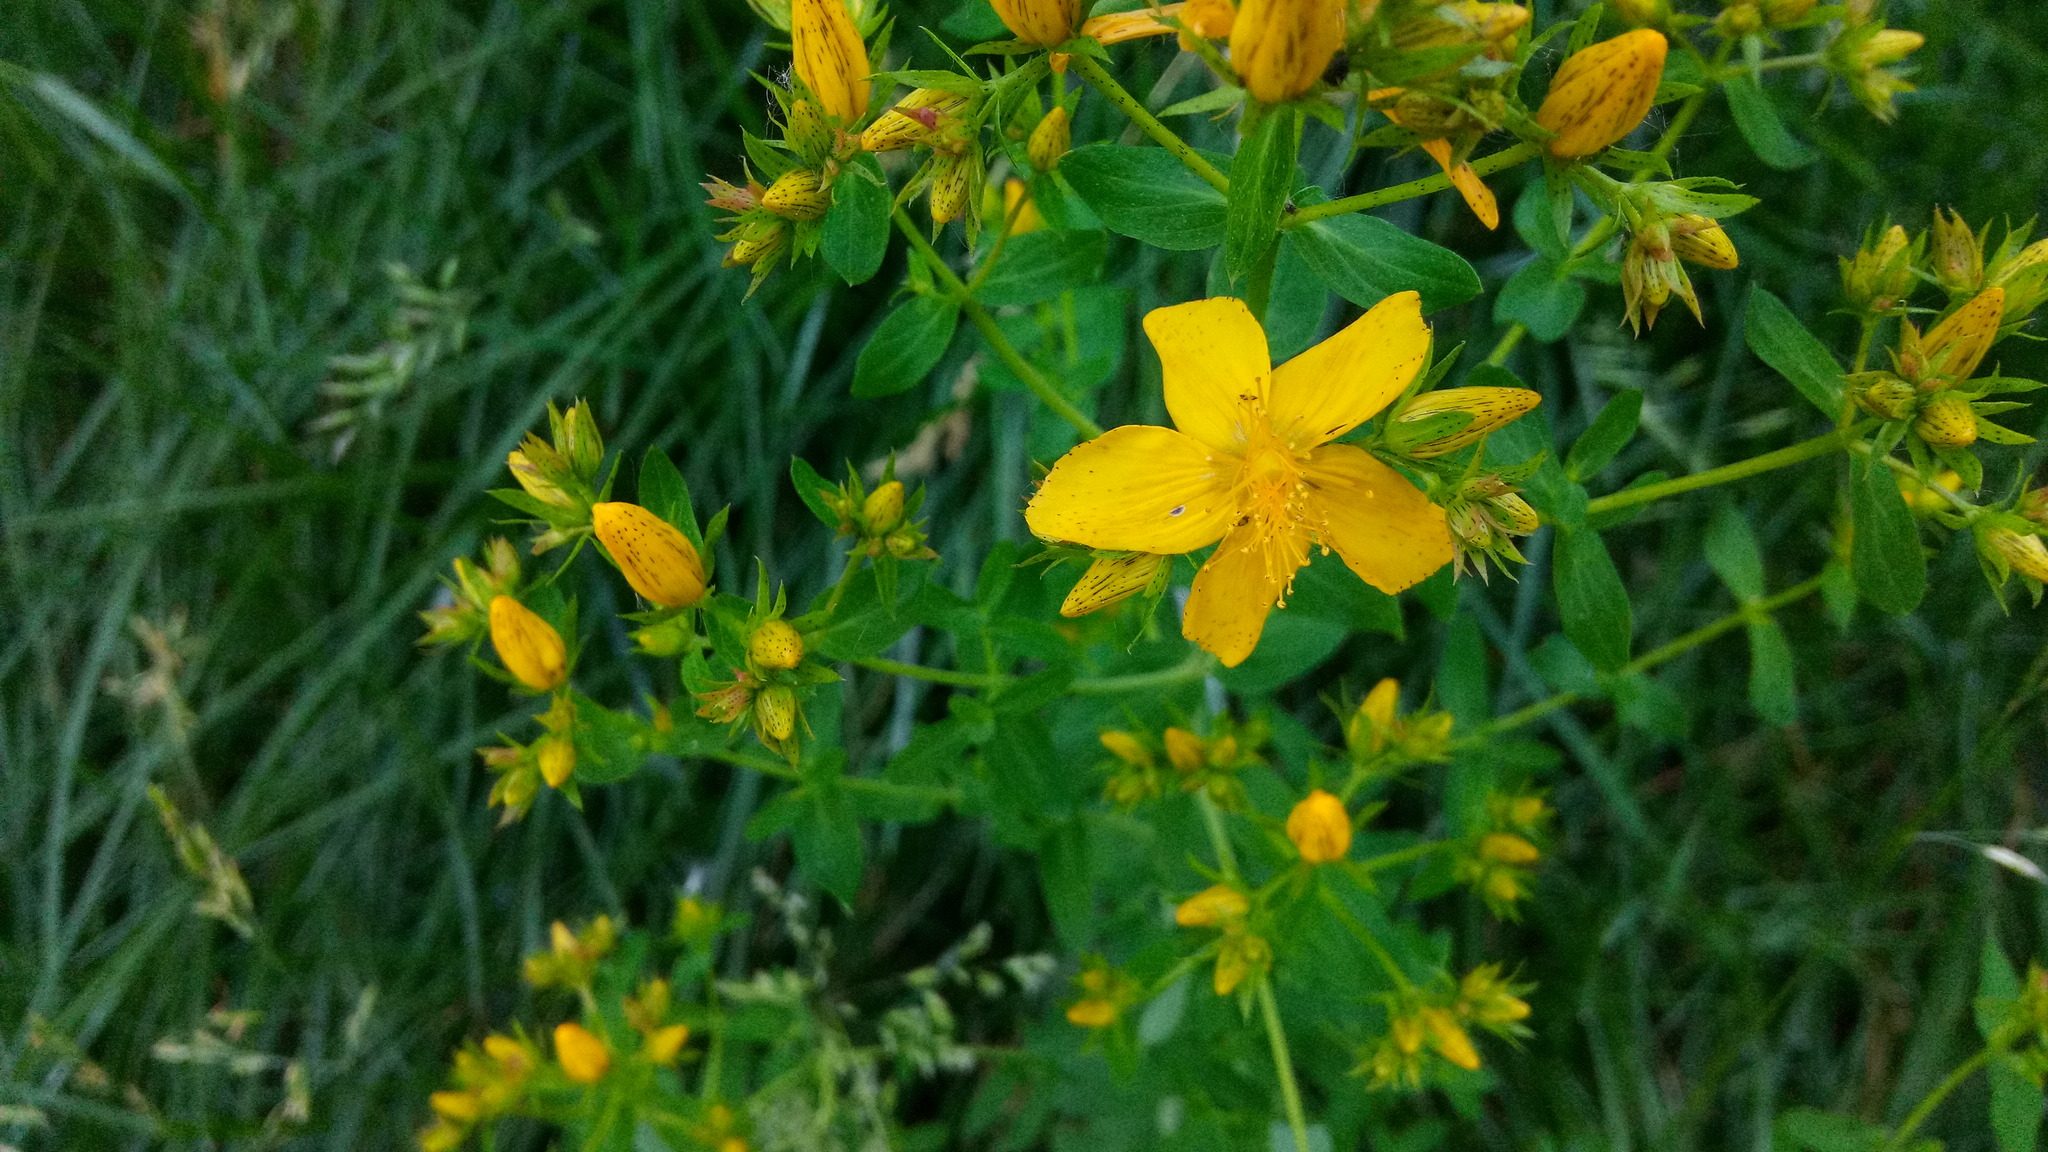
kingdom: Plantae
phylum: Tracheophyta
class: Magnoliopsida
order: Malpighiales
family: Hypericaceae
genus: Hypericum
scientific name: Hypericum perforatum
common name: Common st. johnswort
